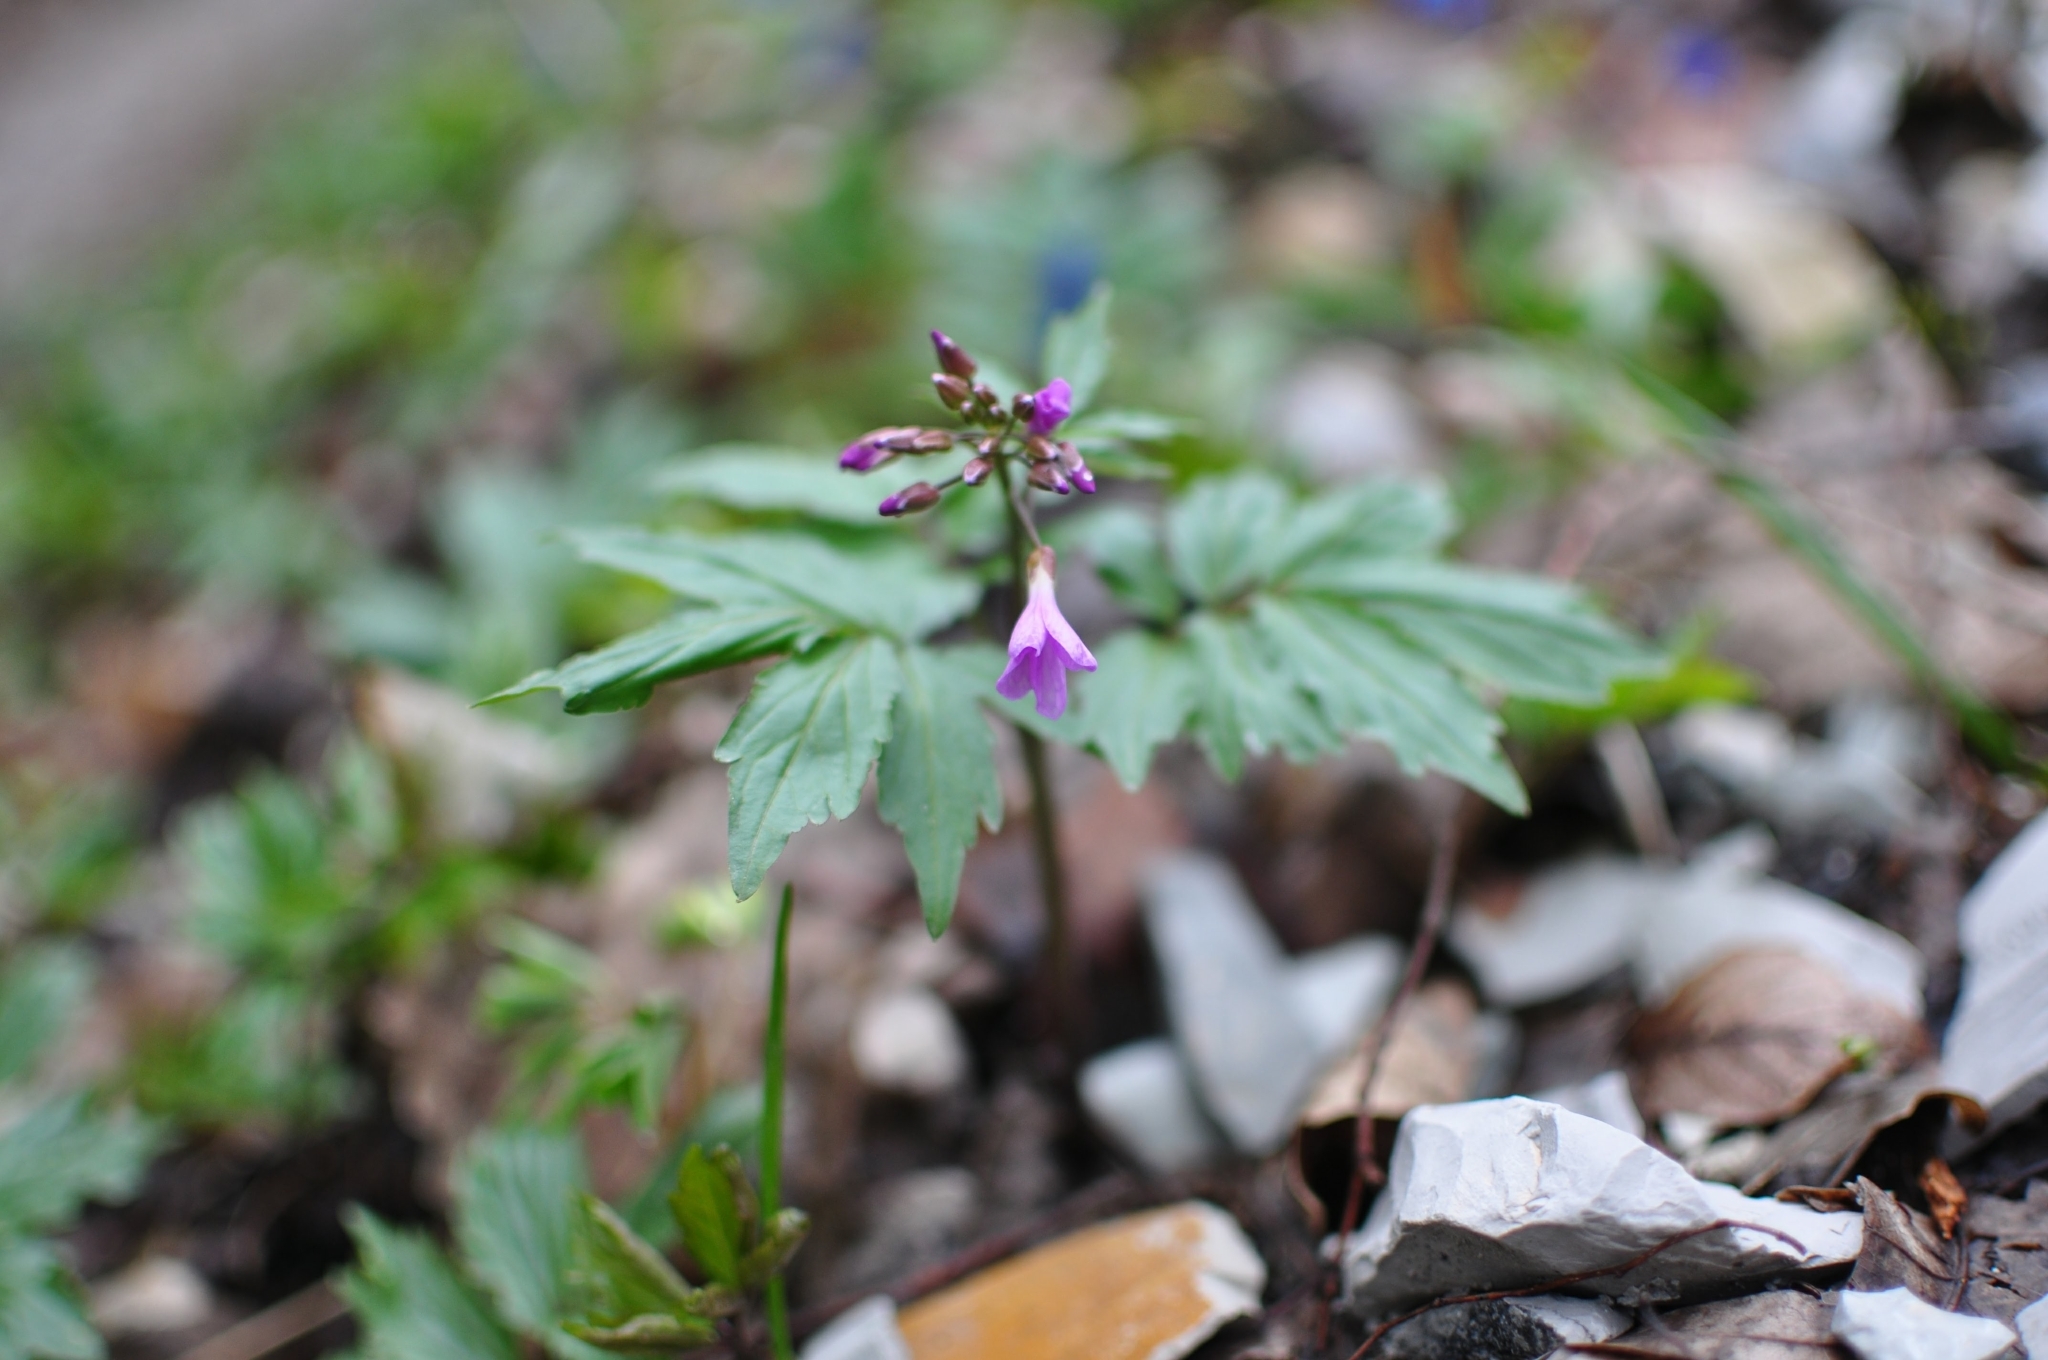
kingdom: Plantae
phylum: Tracheophyta
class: Magnoliopsida
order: Brassicales
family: Brassicaceae
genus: Cardamine
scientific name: Cardamine quinquefolia
